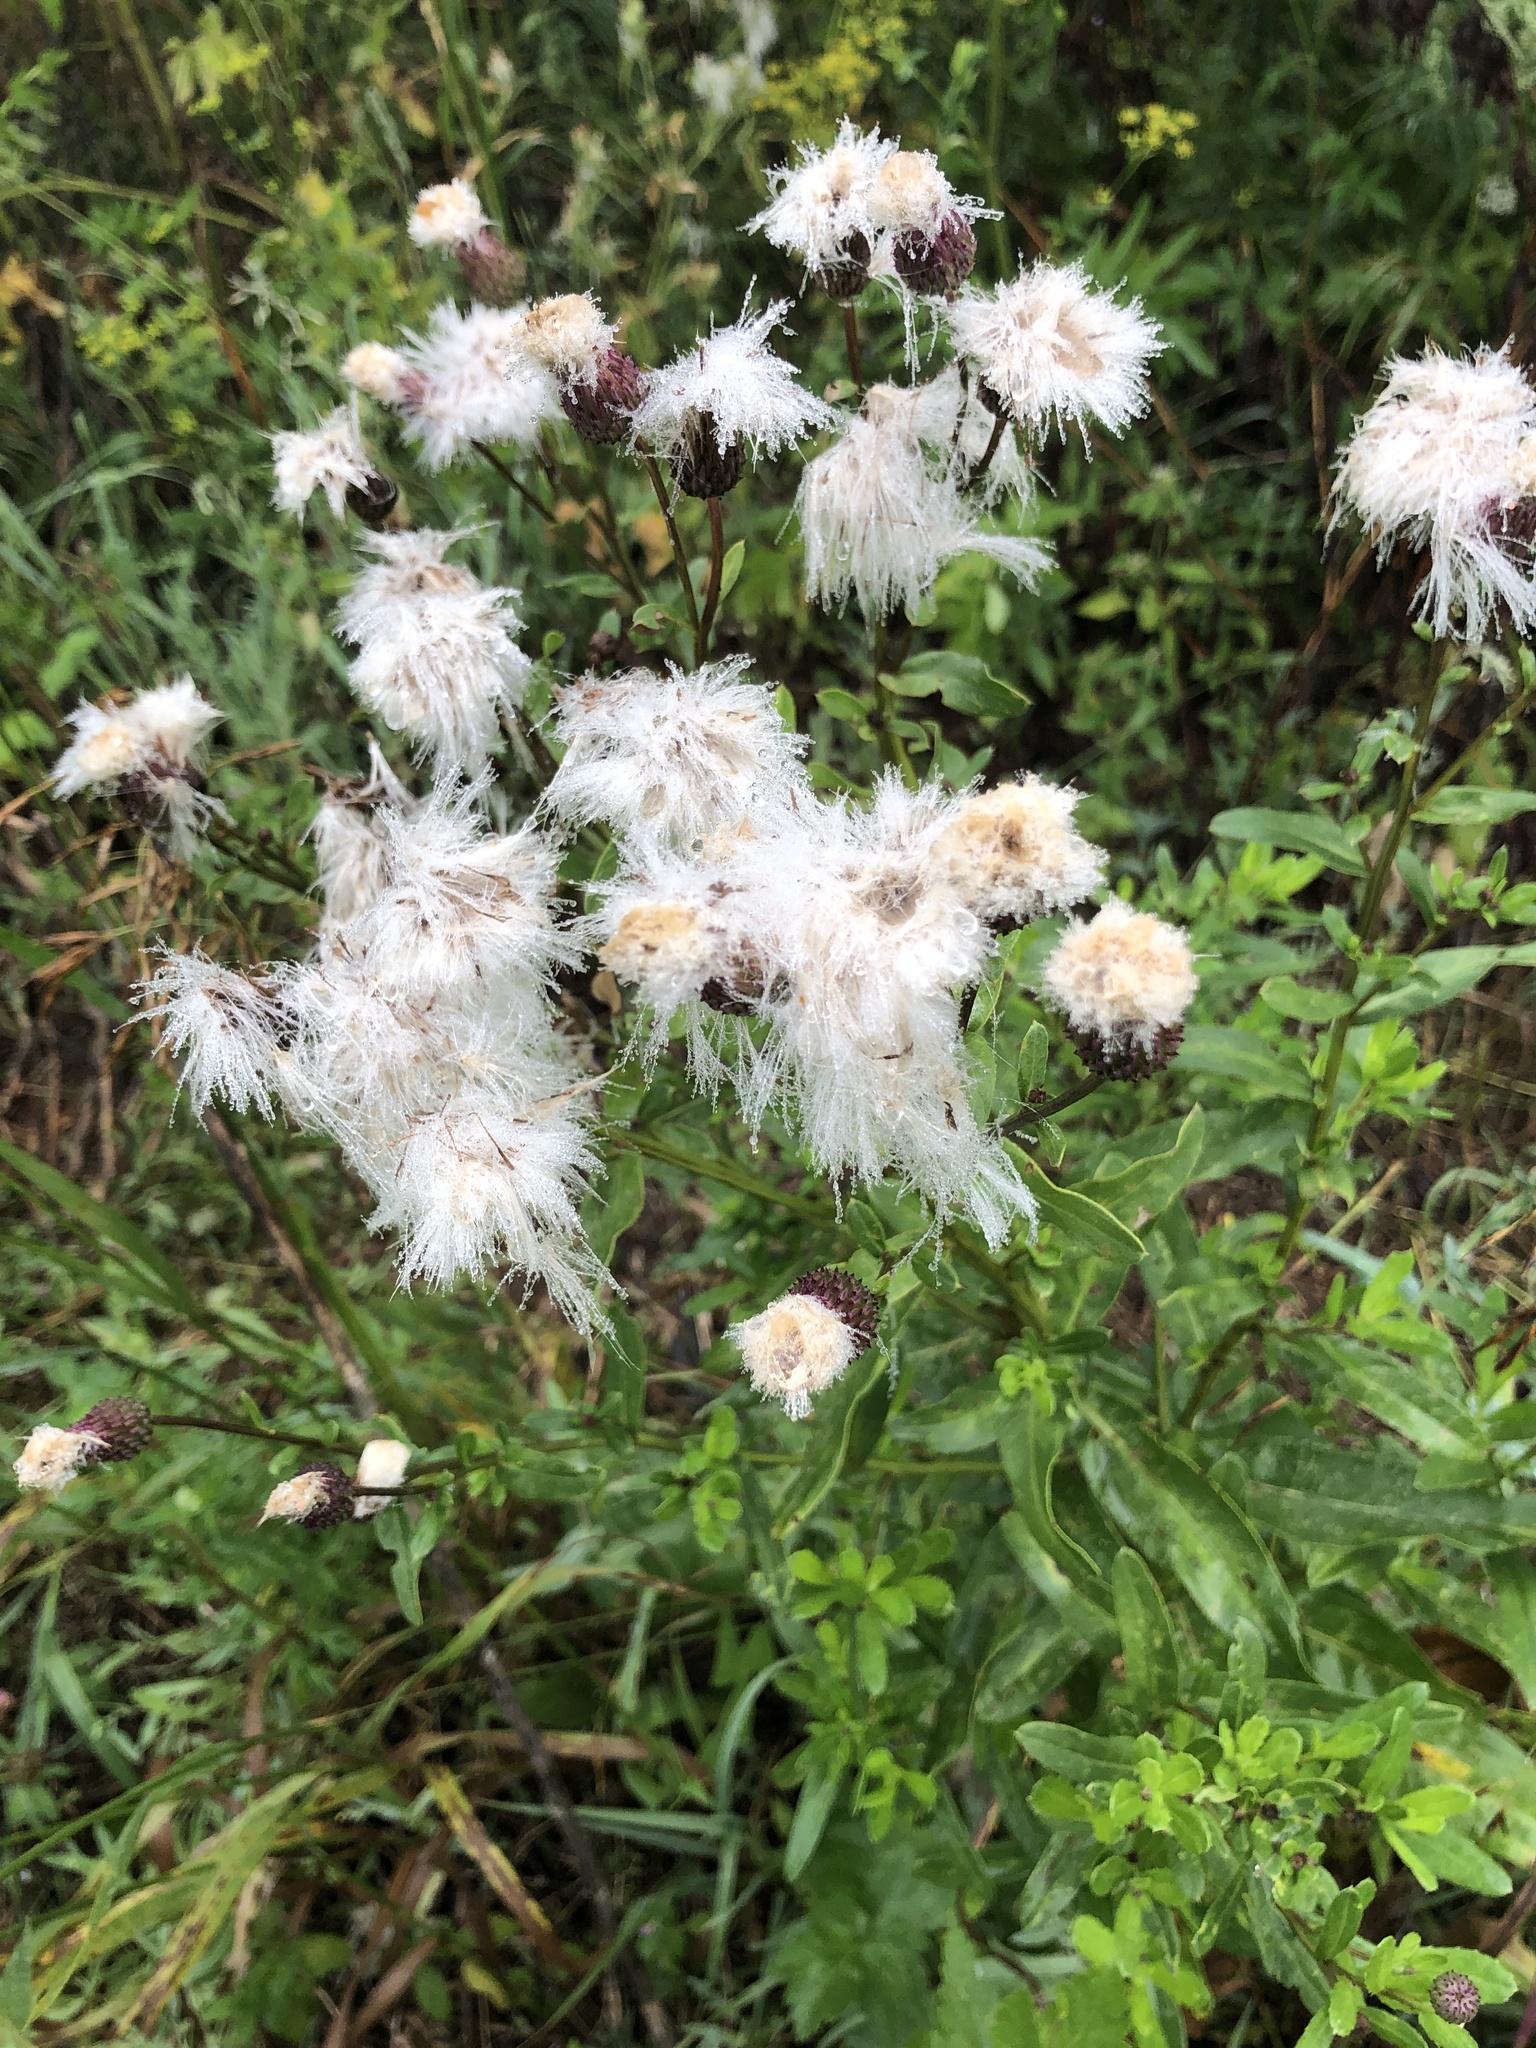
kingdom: Plantae
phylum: Tracheophyta
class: Magnoliopsida
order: Asterales
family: Asteraceae
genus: Cirsium
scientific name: Cirsium arvense
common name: Creeping thistle
